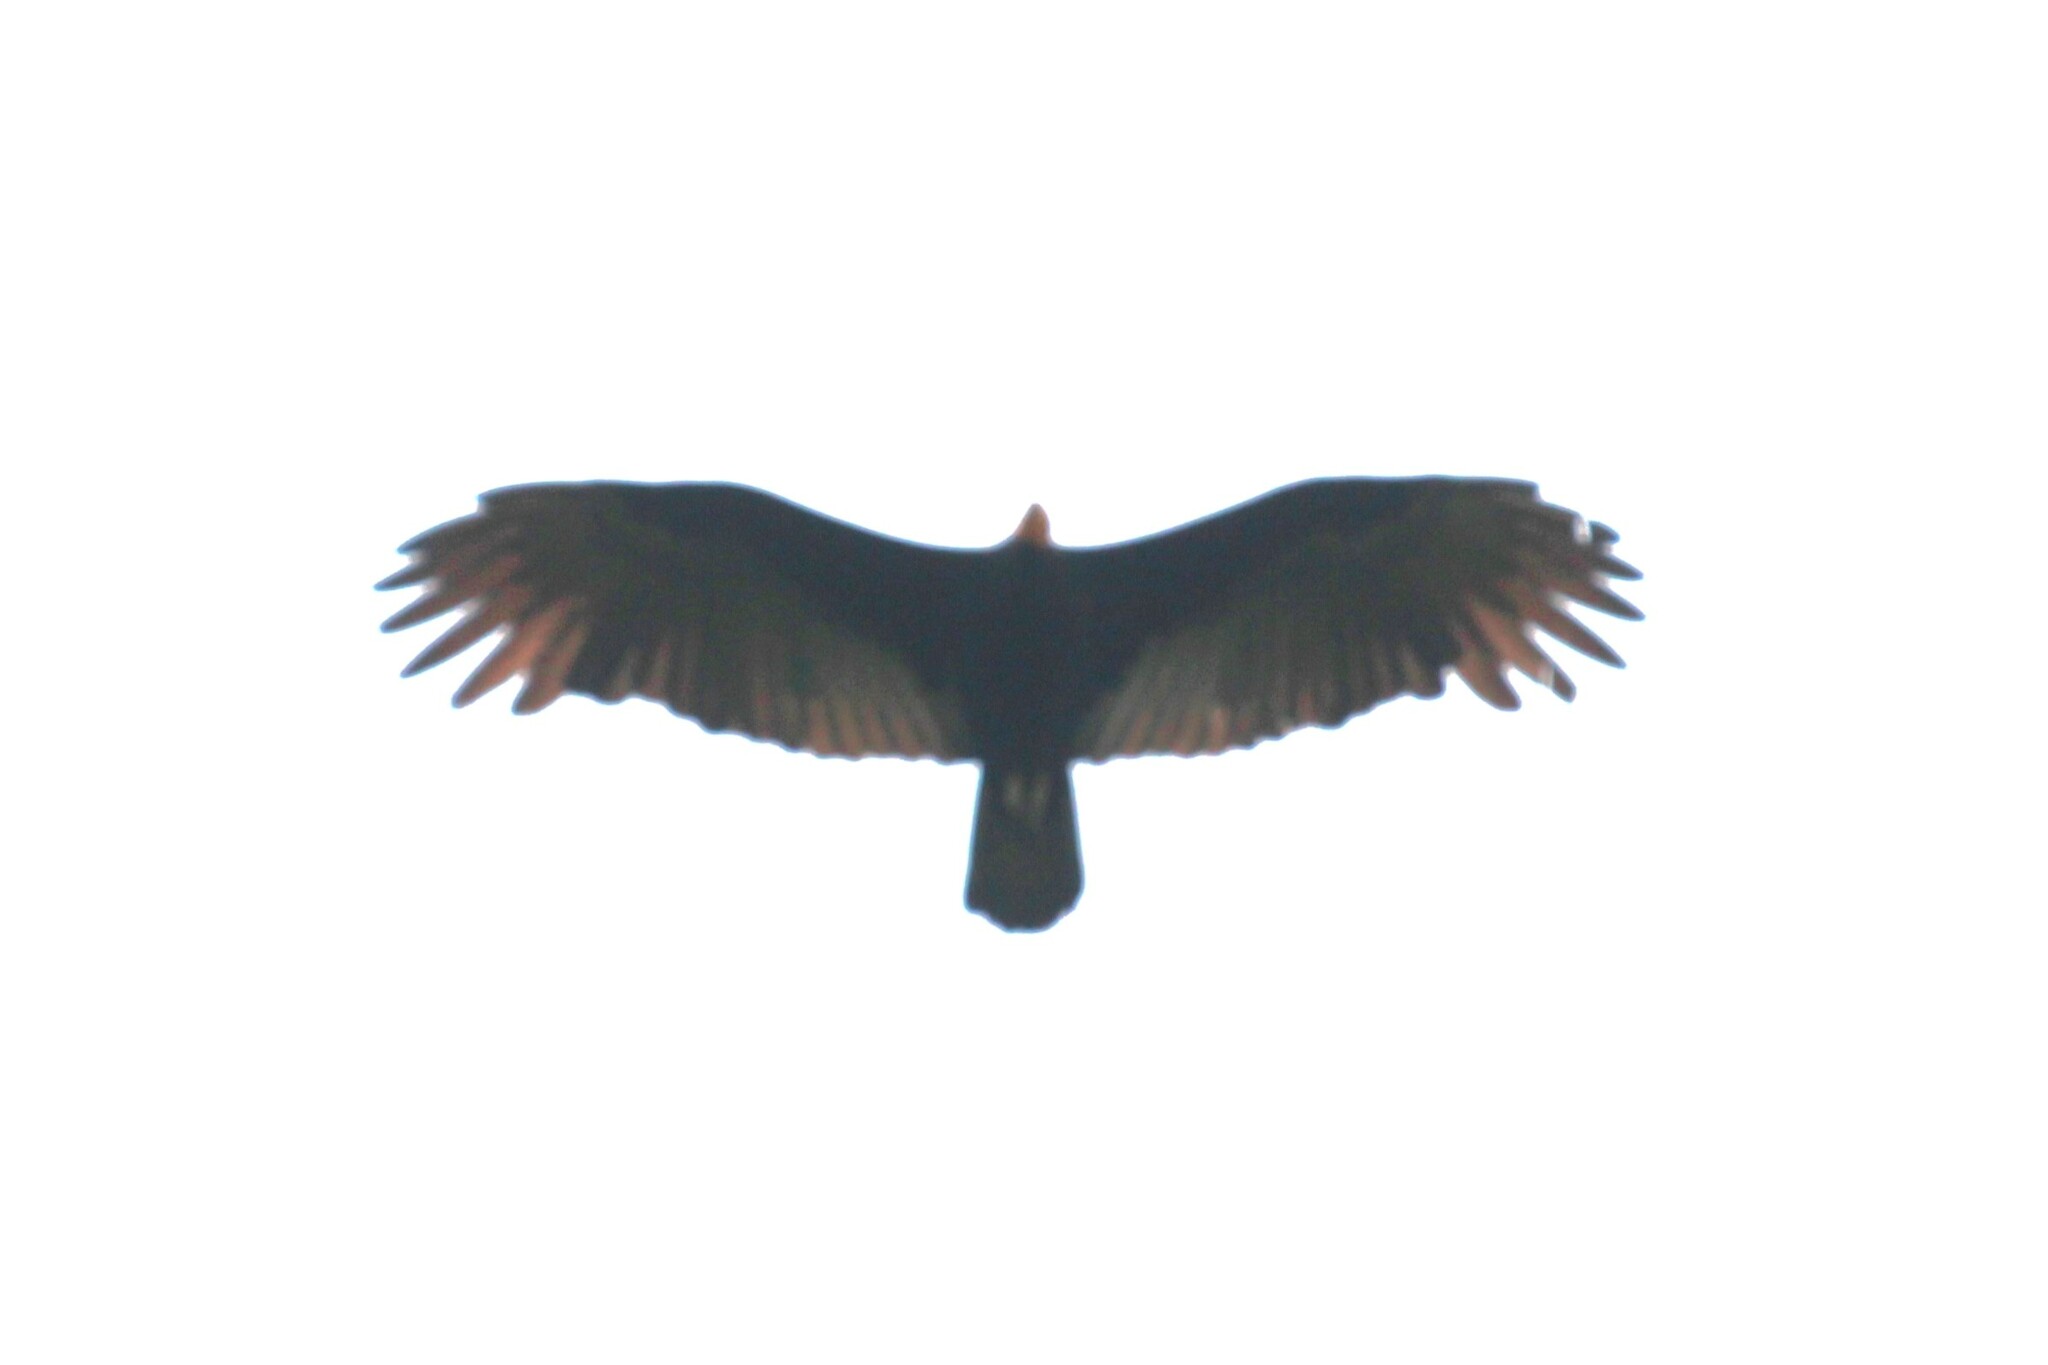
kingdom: Animalia
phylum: Chordata
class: Aves
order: Accipitriformes
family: Cathartidae
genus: Cathartes
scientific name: Cathartes melambrotus
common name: Greater yellow-headed vulture
